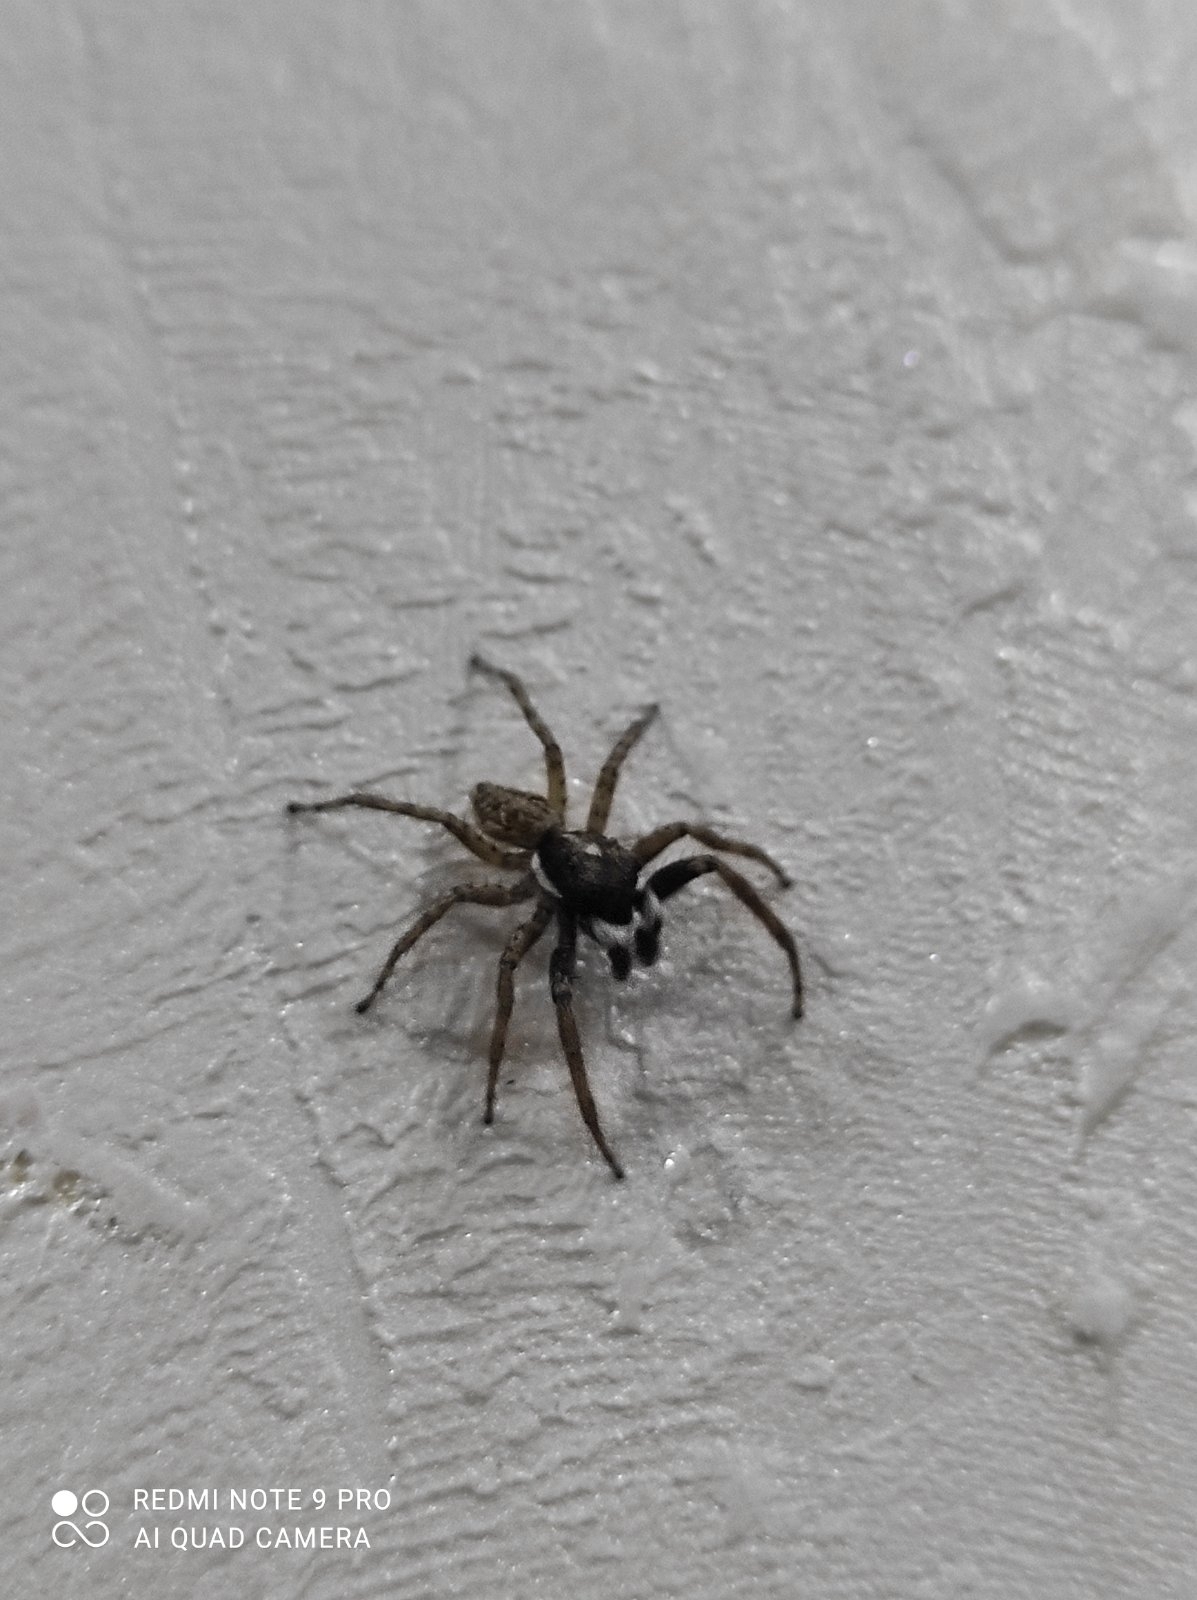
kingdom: Animalia
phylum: Arthropoda
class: Arachnida
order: Araneae
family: Salticidae
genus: Menemerus
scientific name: Menemerus semilimbatus
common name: Jumping spider
